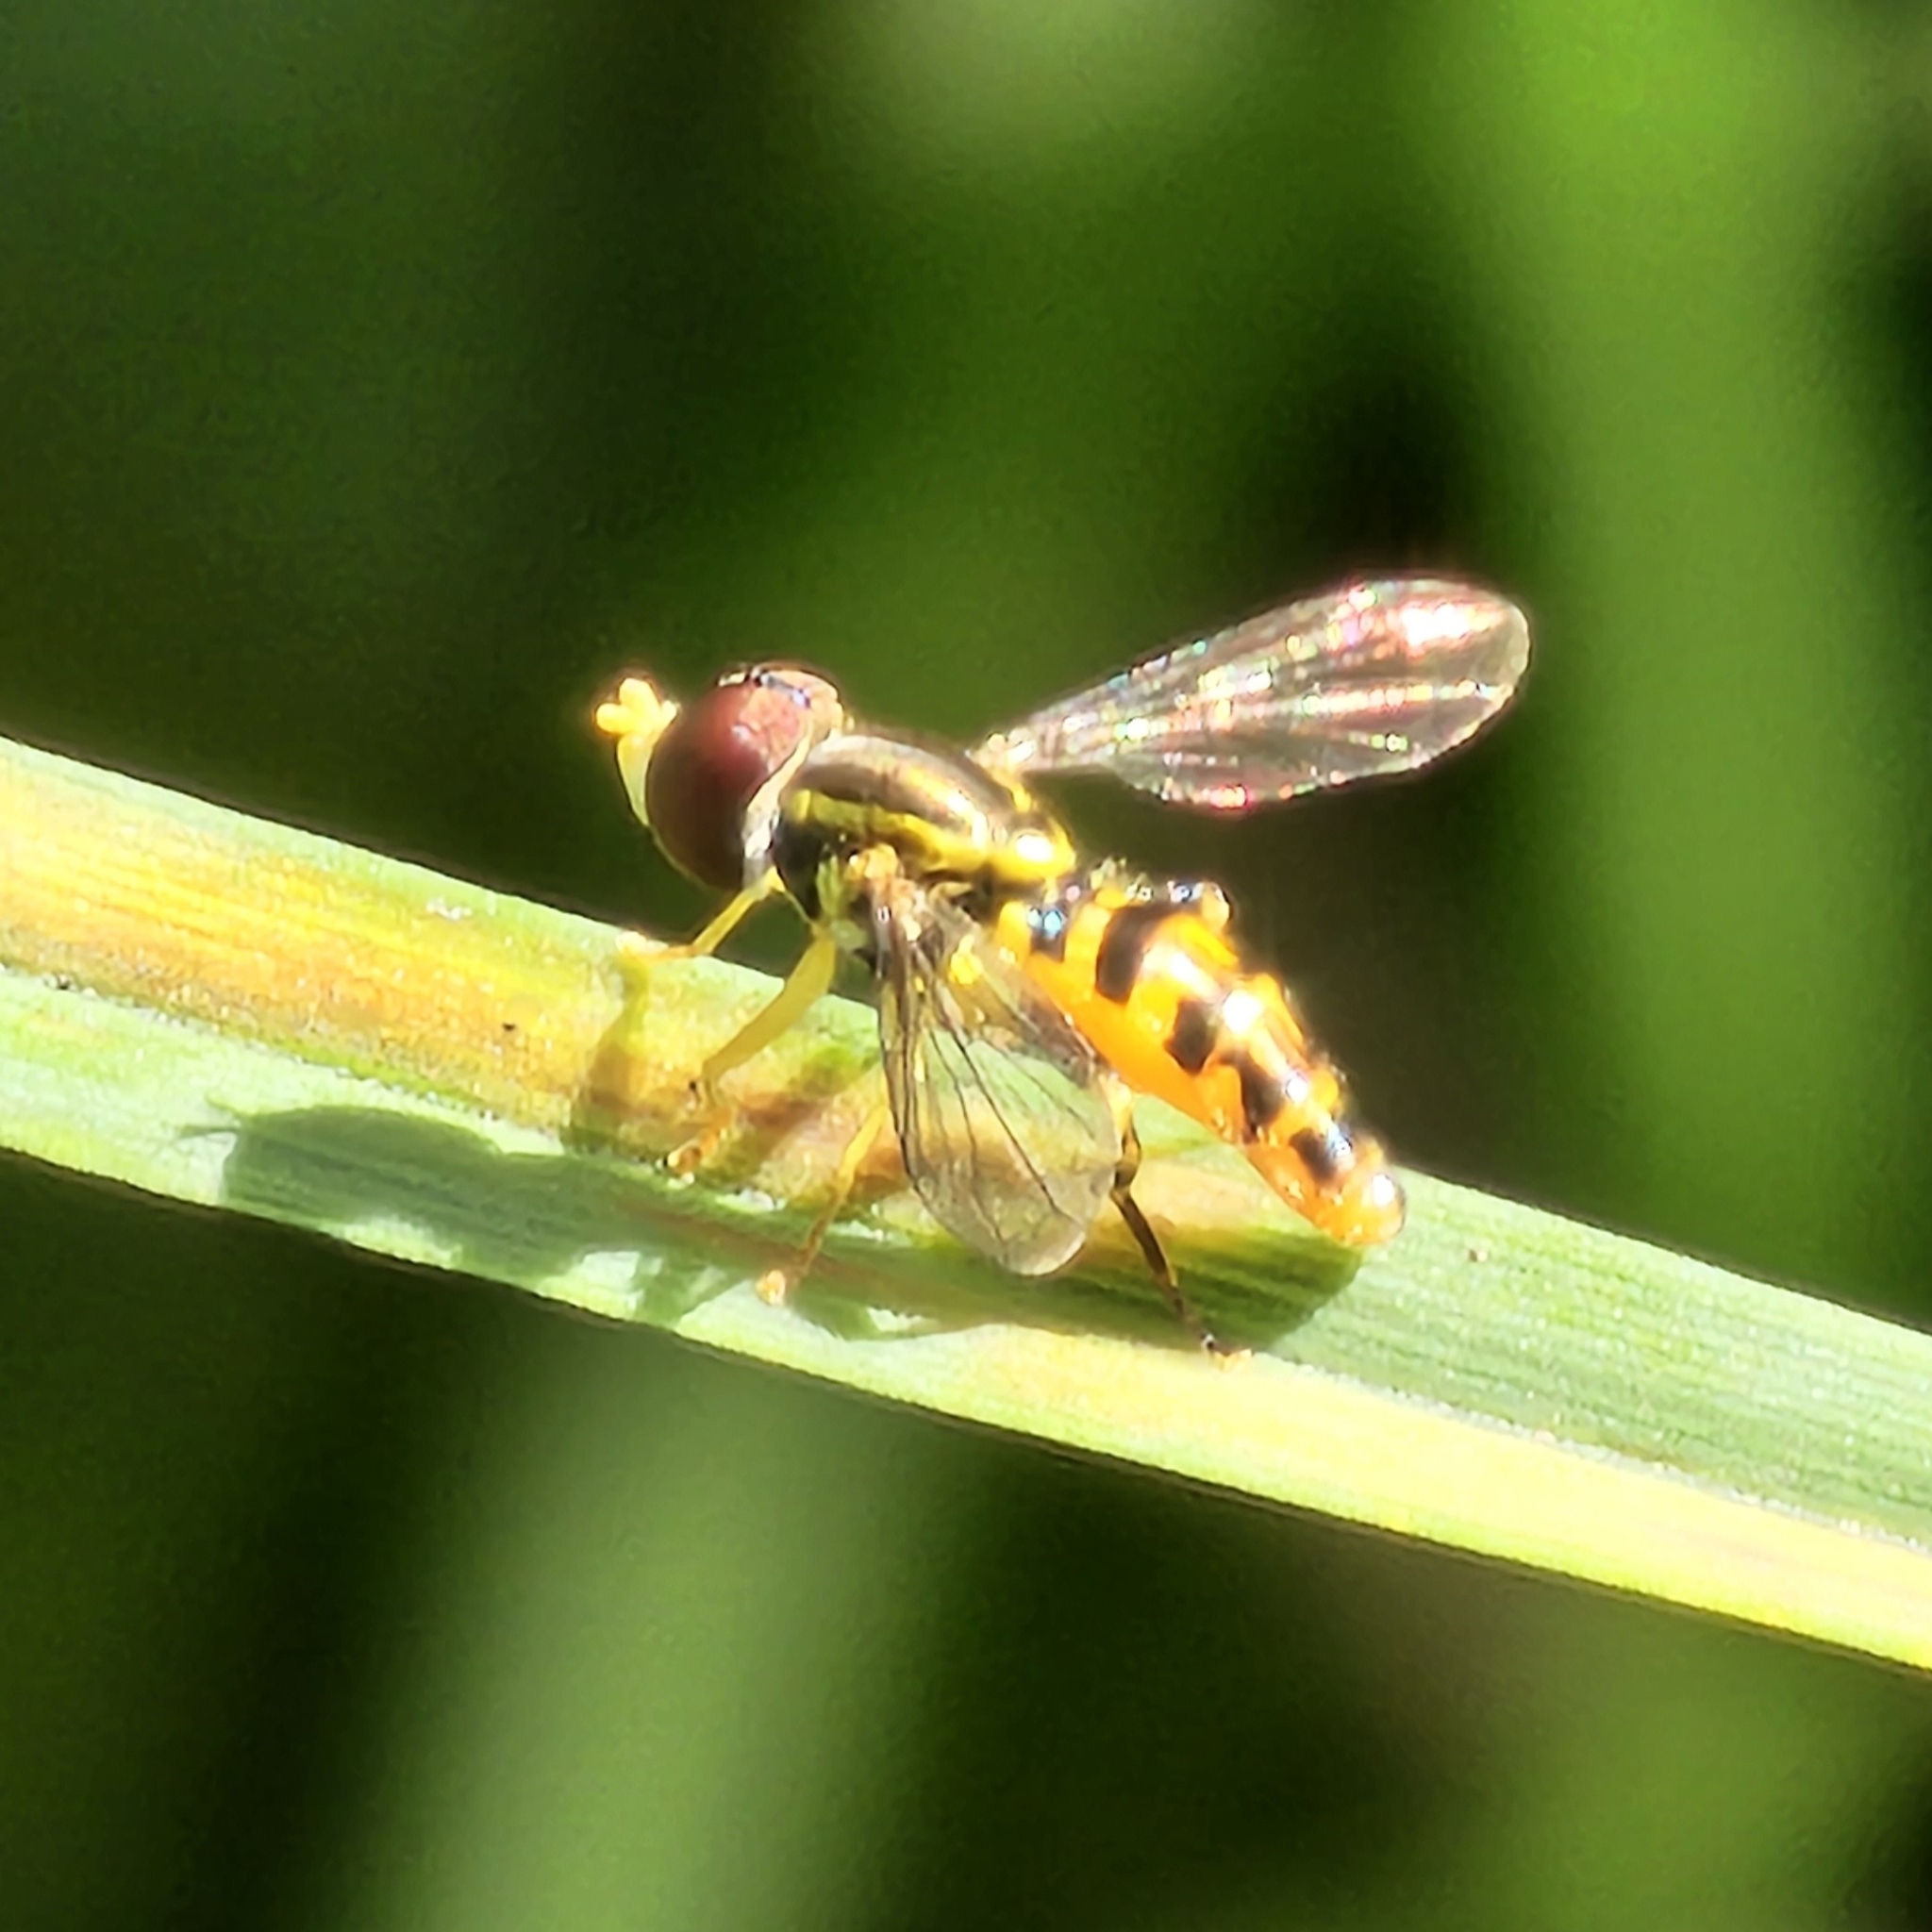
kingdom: Animalia
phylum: Arthropoda
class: Insecta
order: Diptera
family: Syrphidae
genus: Toxomerus
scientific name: Toxomerus geminatus
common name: Eastern calligrapher
